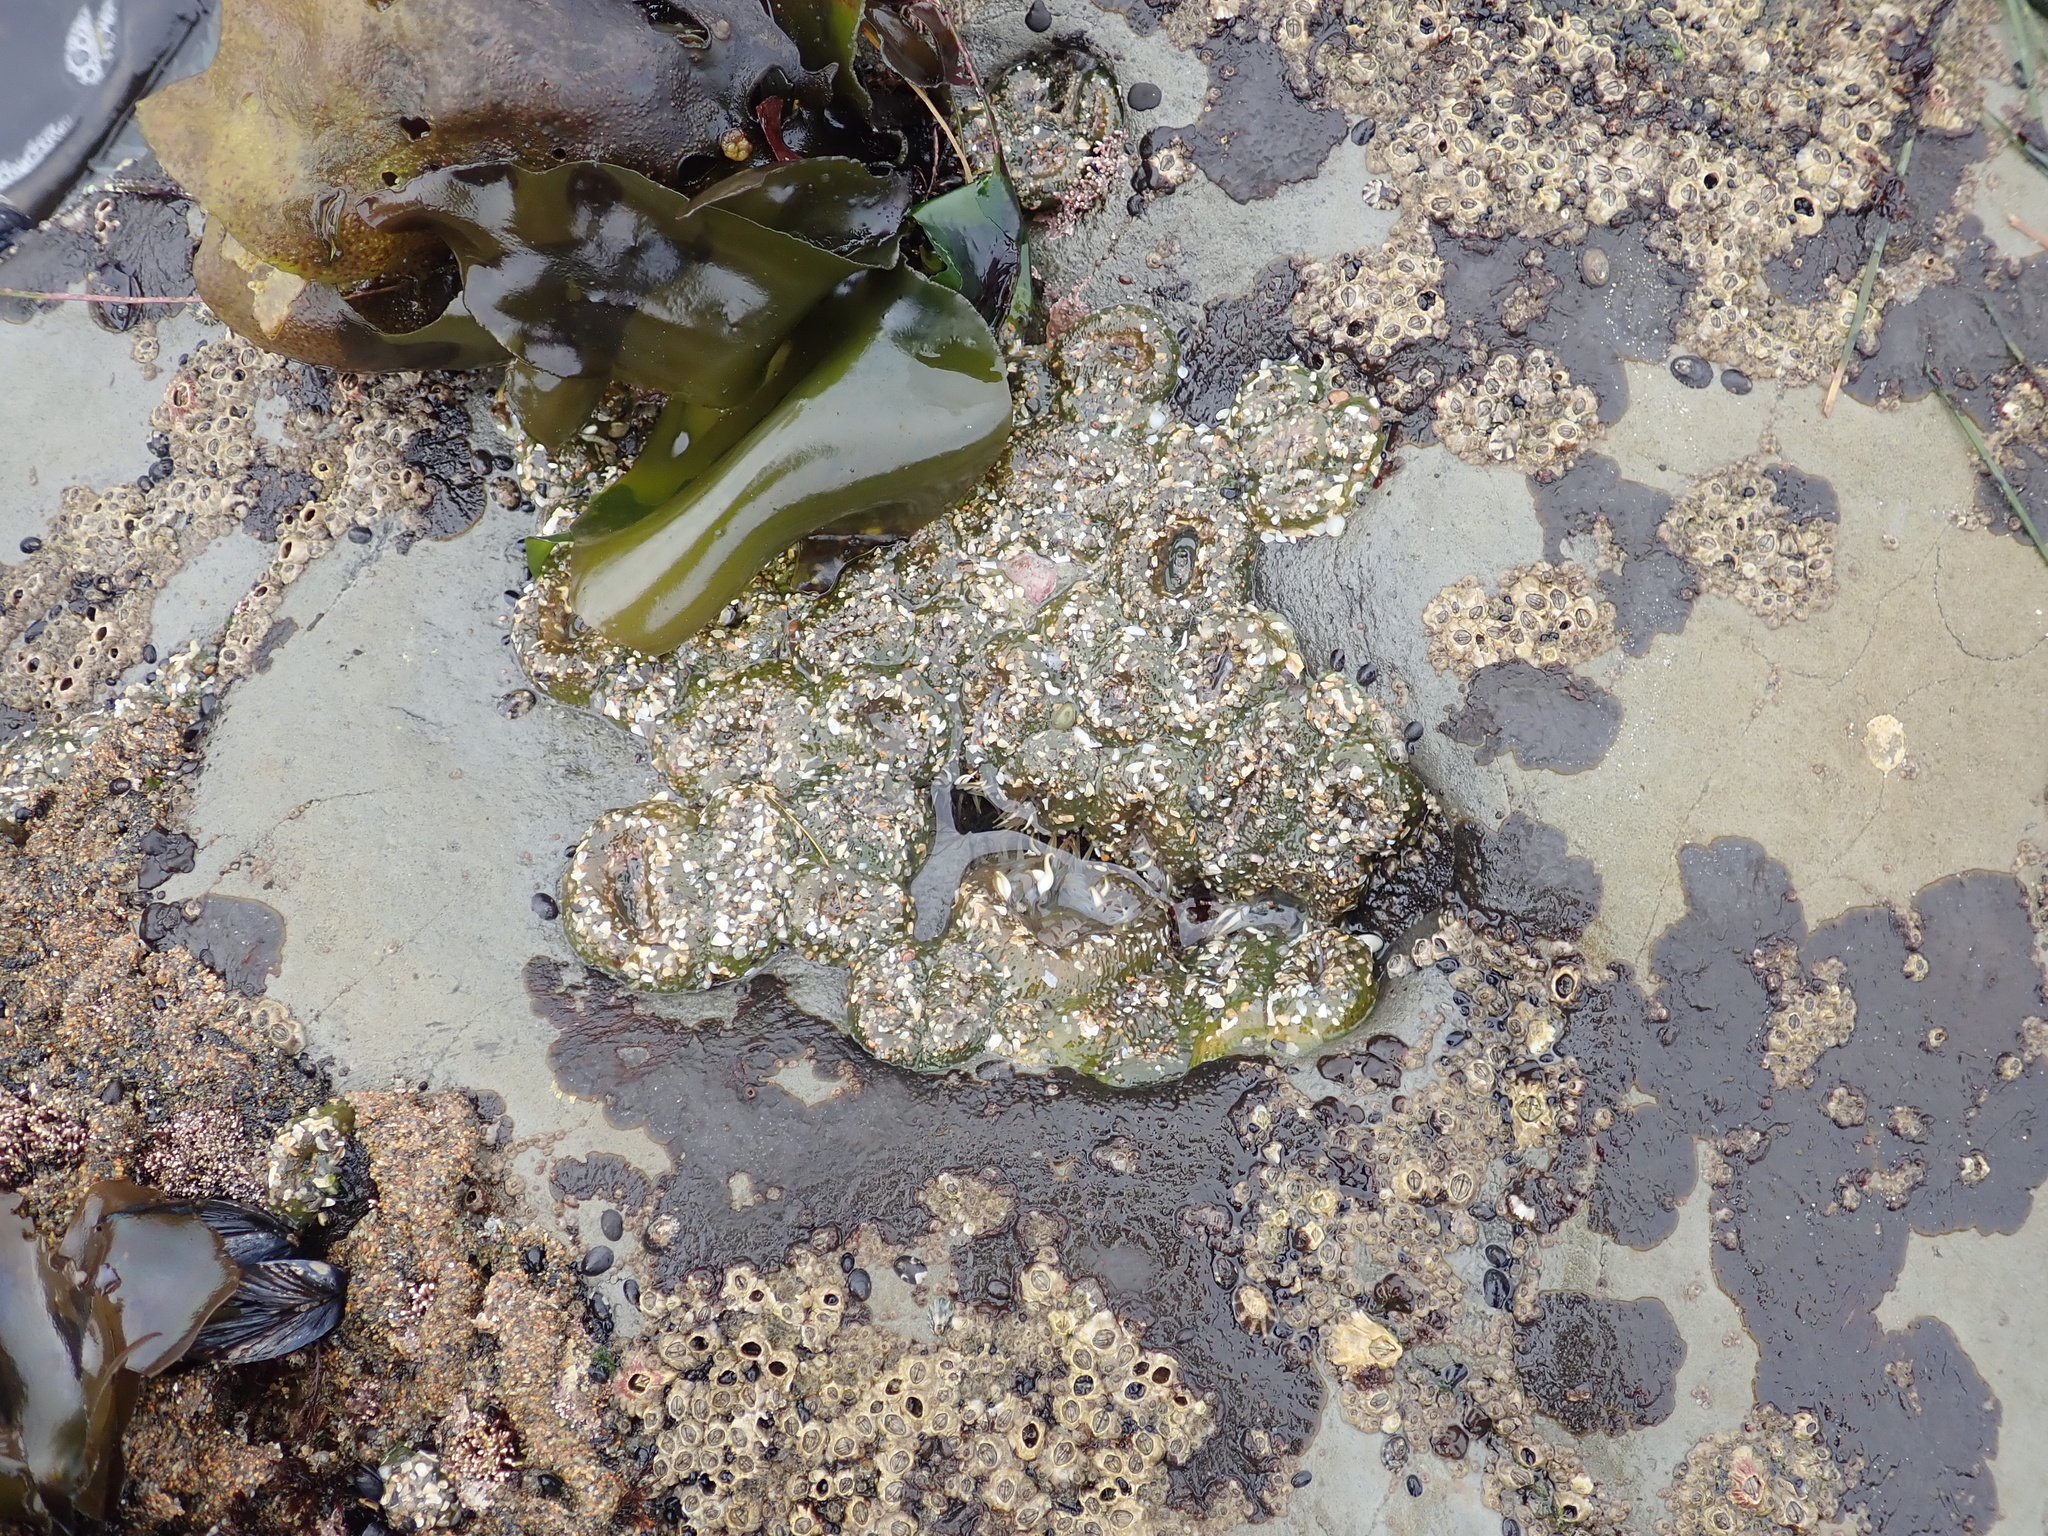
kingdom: Animalia
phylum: Cnidaria
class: Anthozoa
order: Actiniaria
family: Actiniidae
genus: Anthopleura
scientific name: Anthopleura elegantissima
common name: Clonal anemone
